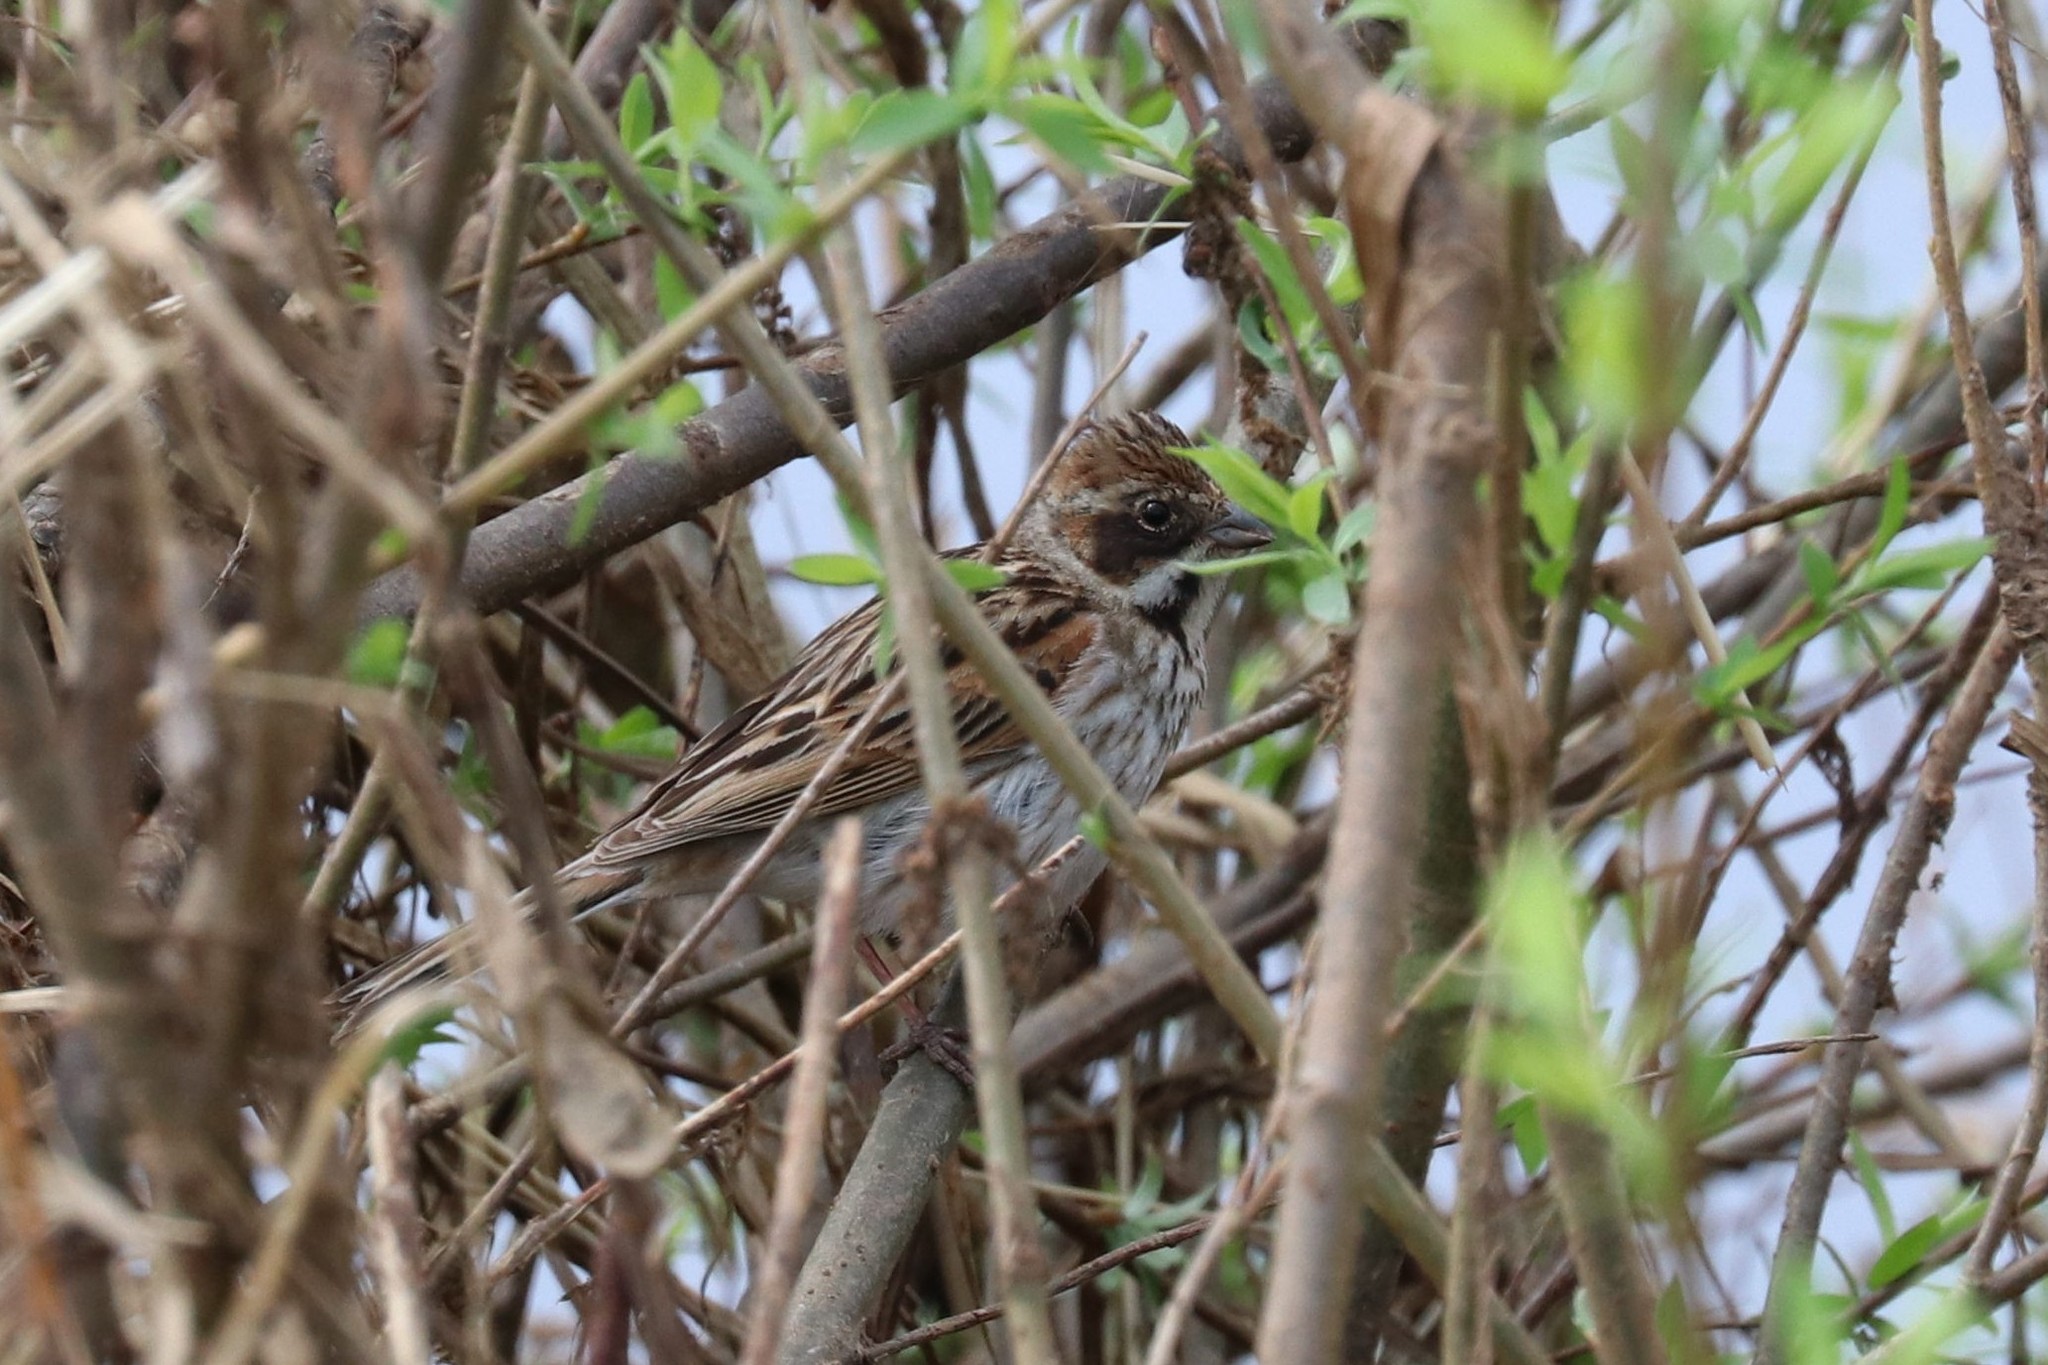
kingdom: Animalia
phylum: Chordata
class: Aves
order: Passeriformes
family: Emberizidae
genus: Emberiza
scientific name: Emberiza schoeniclus
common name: Reed bunting
